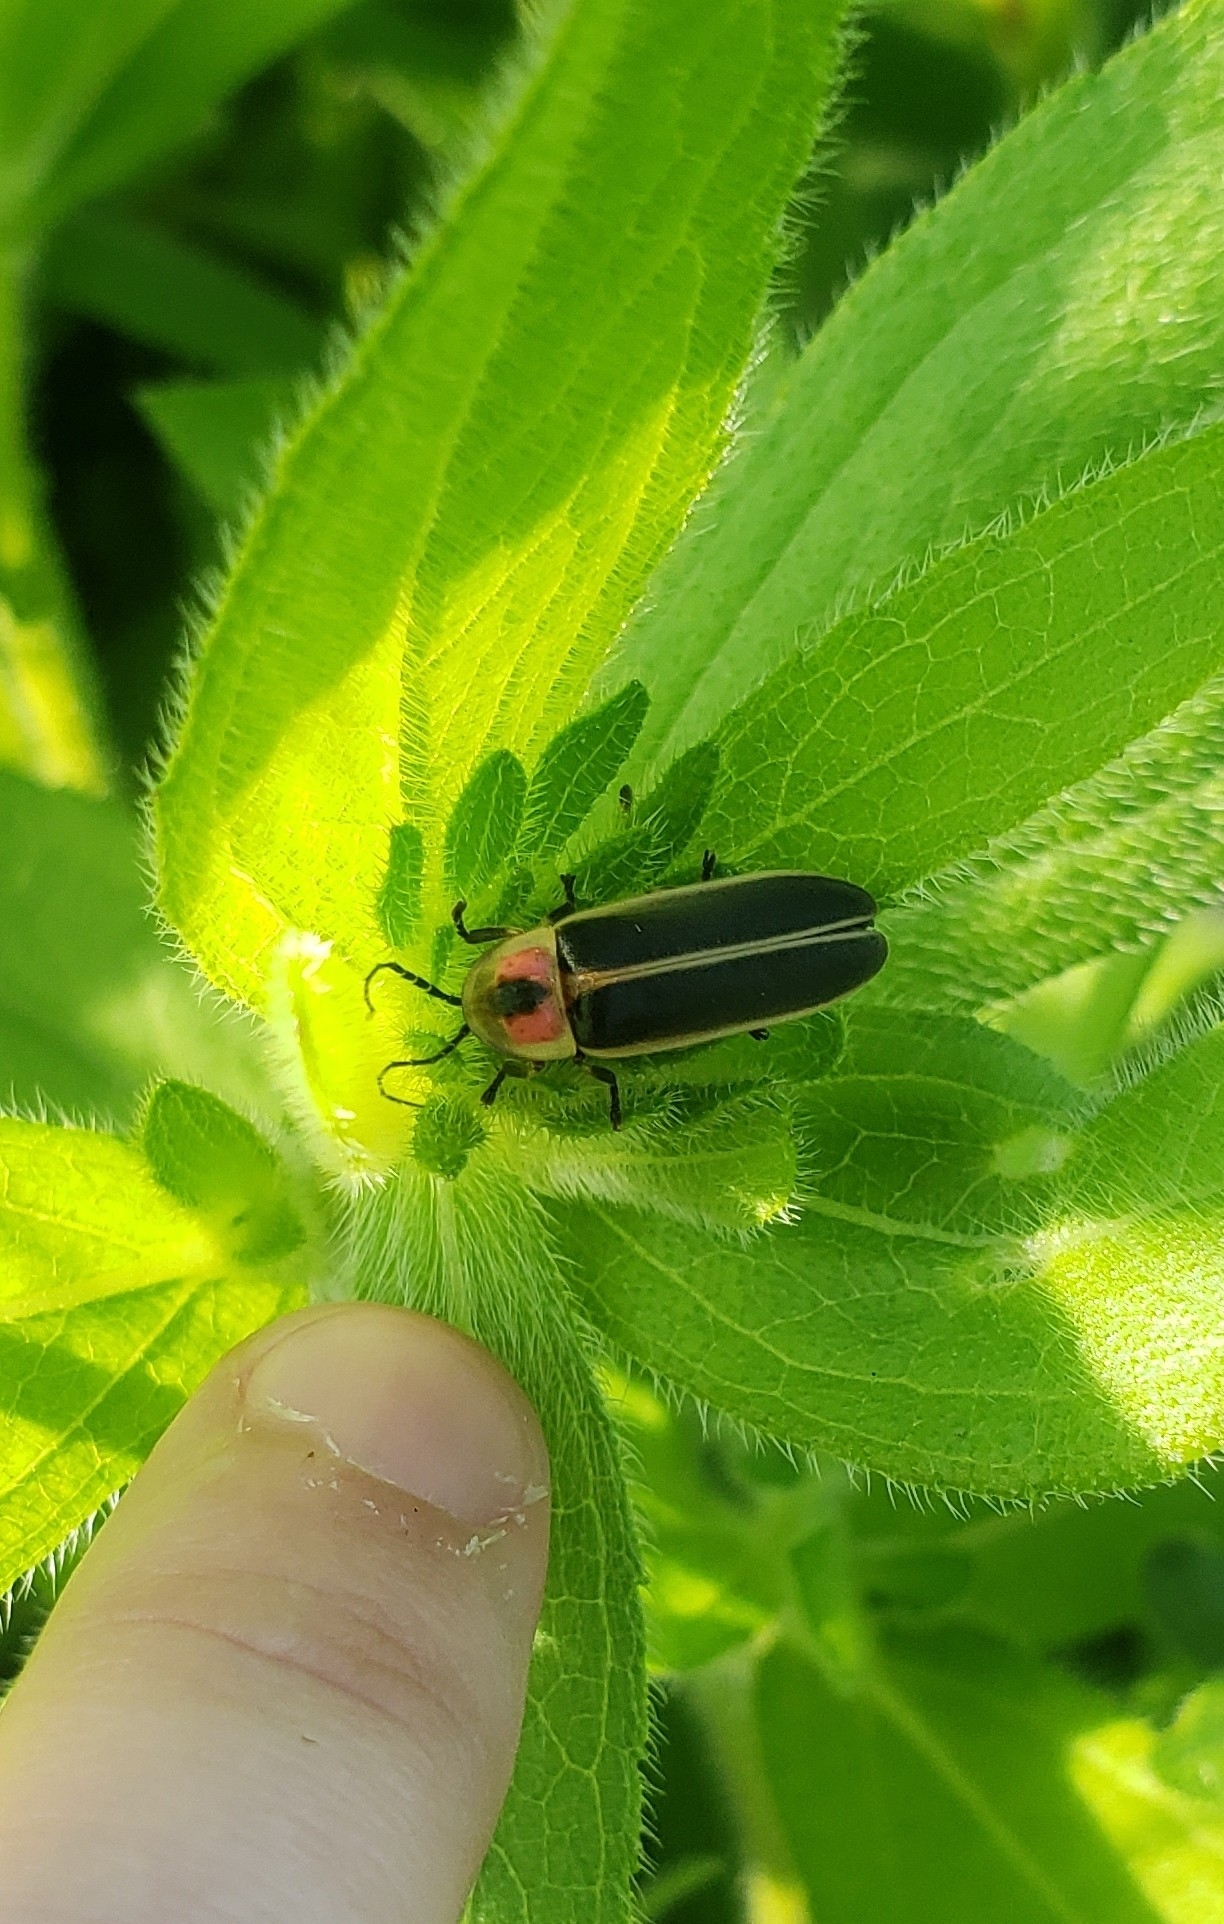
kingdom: Animalia
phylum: Arthropoda
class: Insecta
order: Coleoptera
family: Lampyridae
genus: Photinus
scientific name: Photinus pyralis
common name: Big dipper firefly
